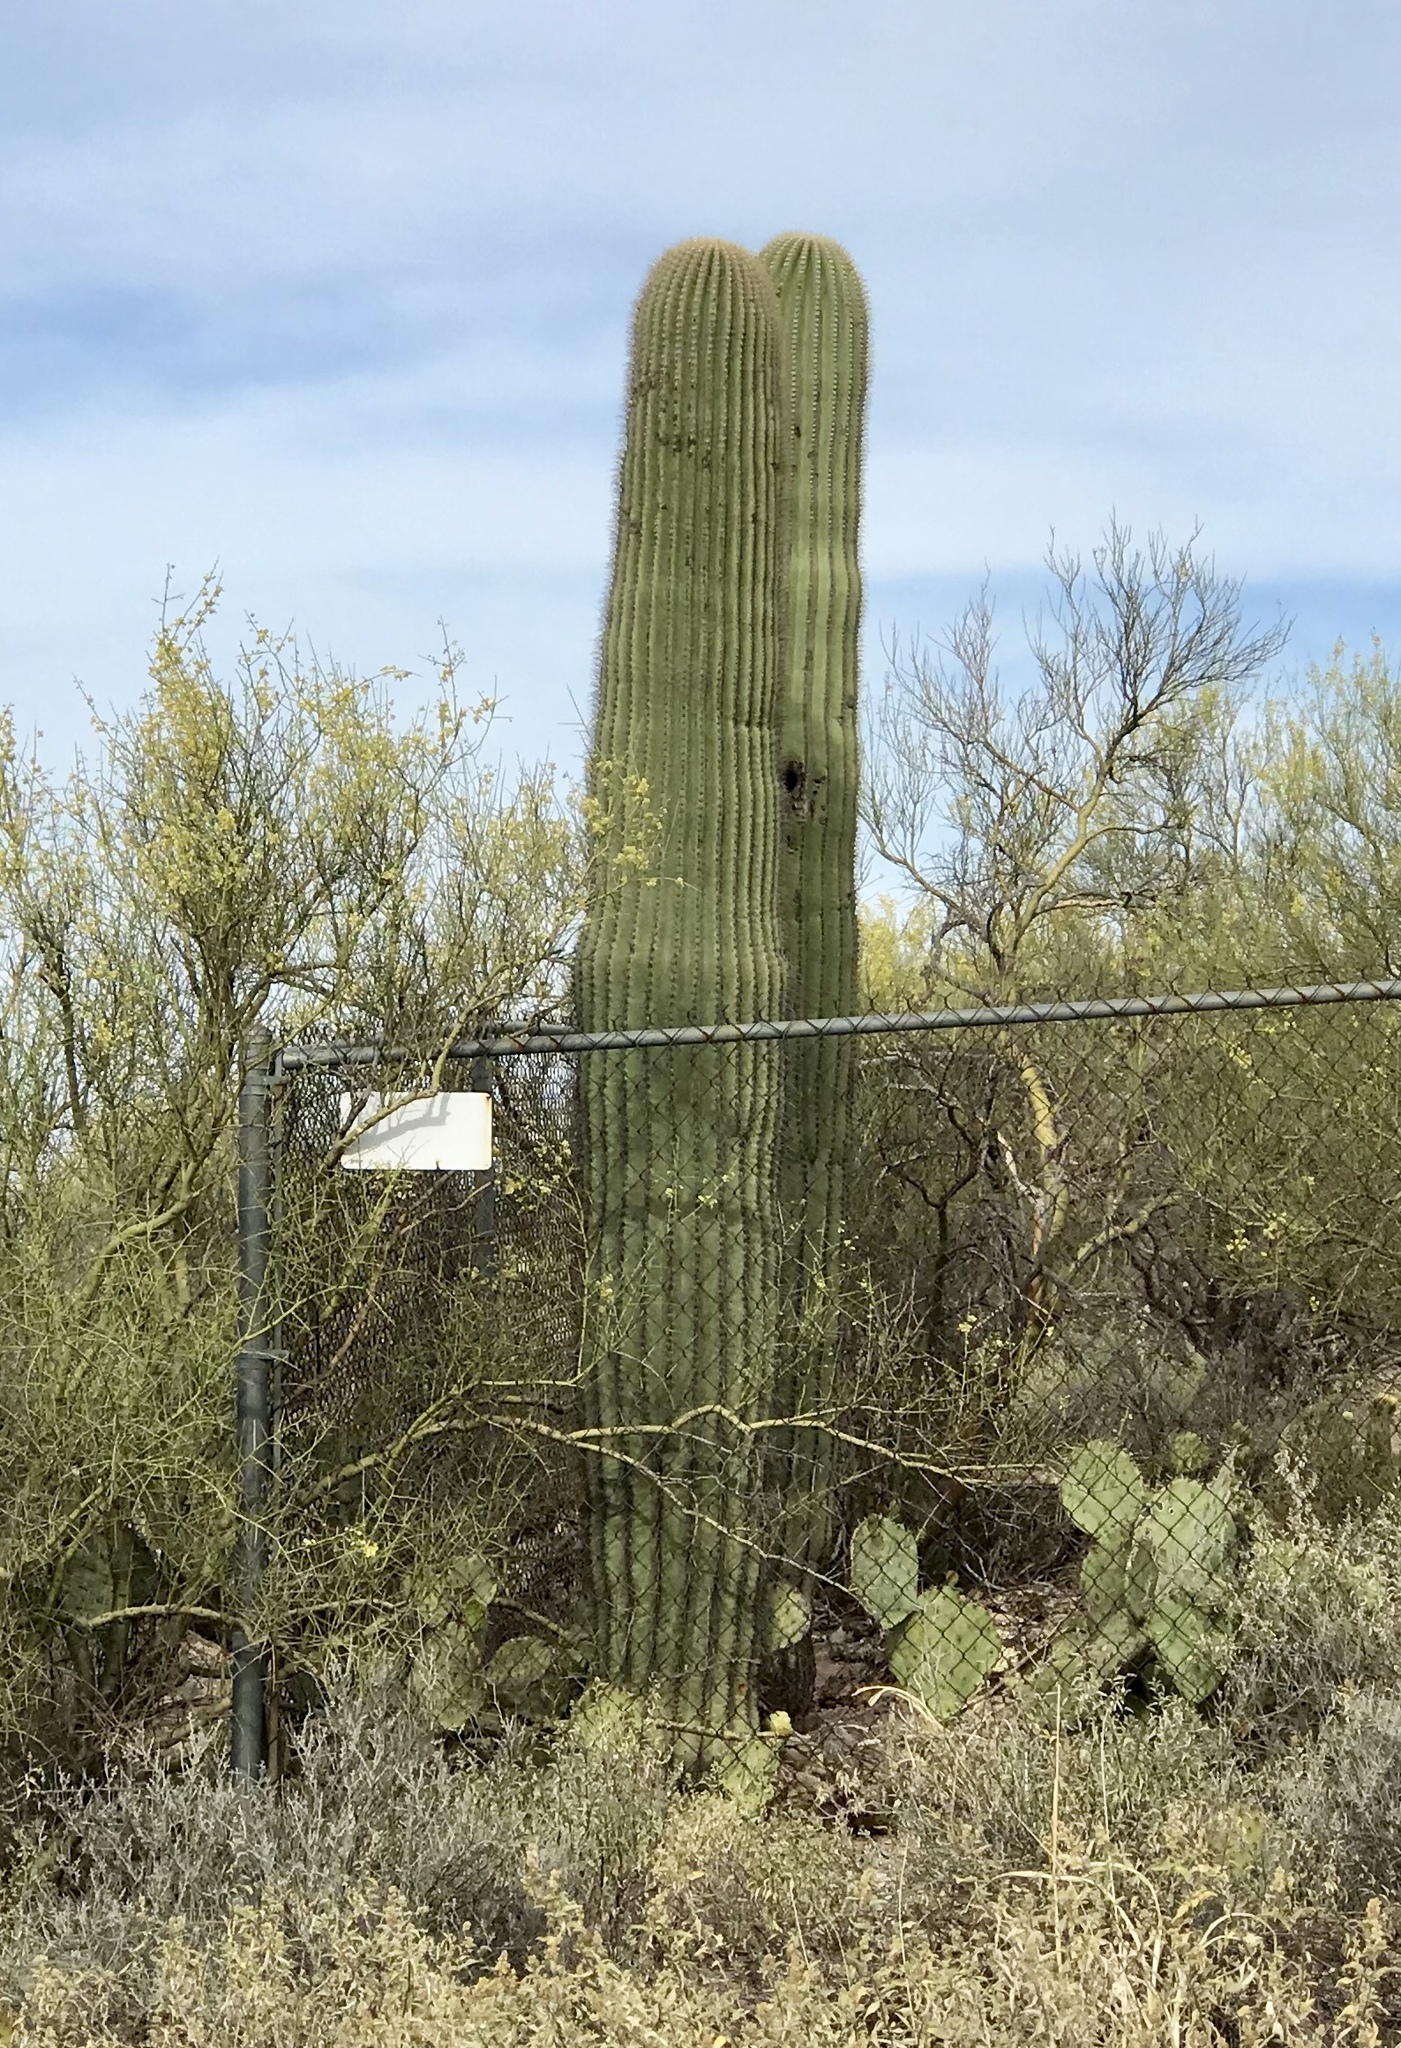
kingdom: Plantae
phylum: Tracheophyta
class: Magnoliopsida
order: Caryophyllales
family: Cactaceae
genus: Carnegiea
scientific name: Carnegiea gigantea
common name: Saguaro
